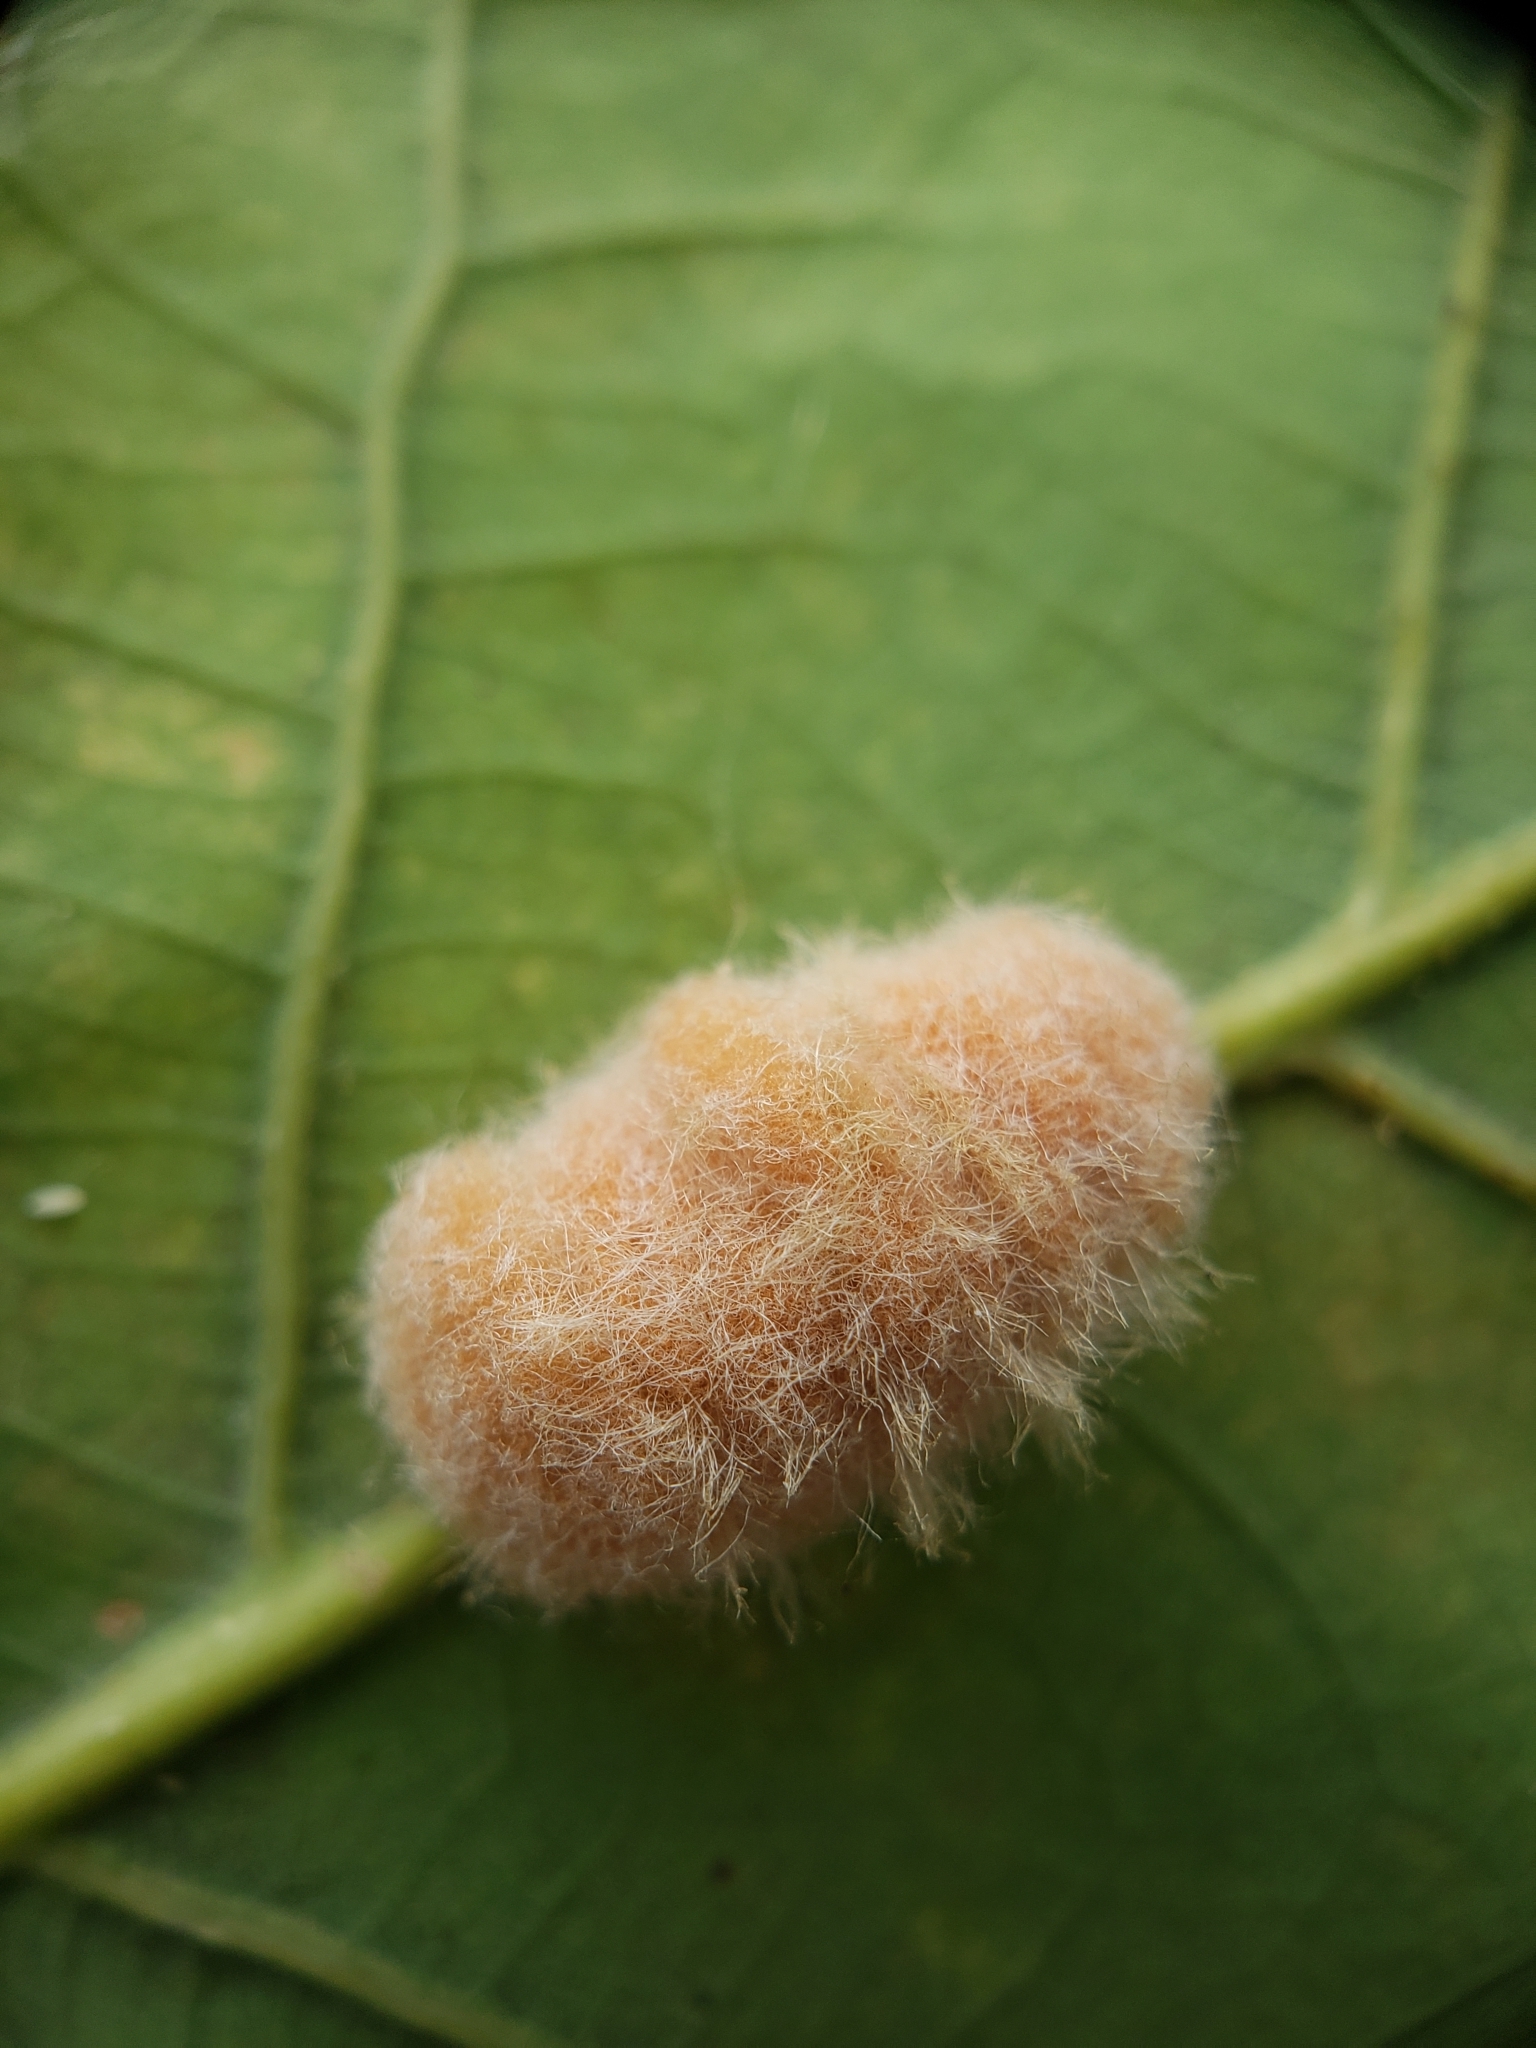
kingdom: Animalia
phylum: Arthropoda
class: Insecta
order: Hymenoptera
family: Cynipidae
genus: Andricus
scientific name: Andricus quercusflocci
